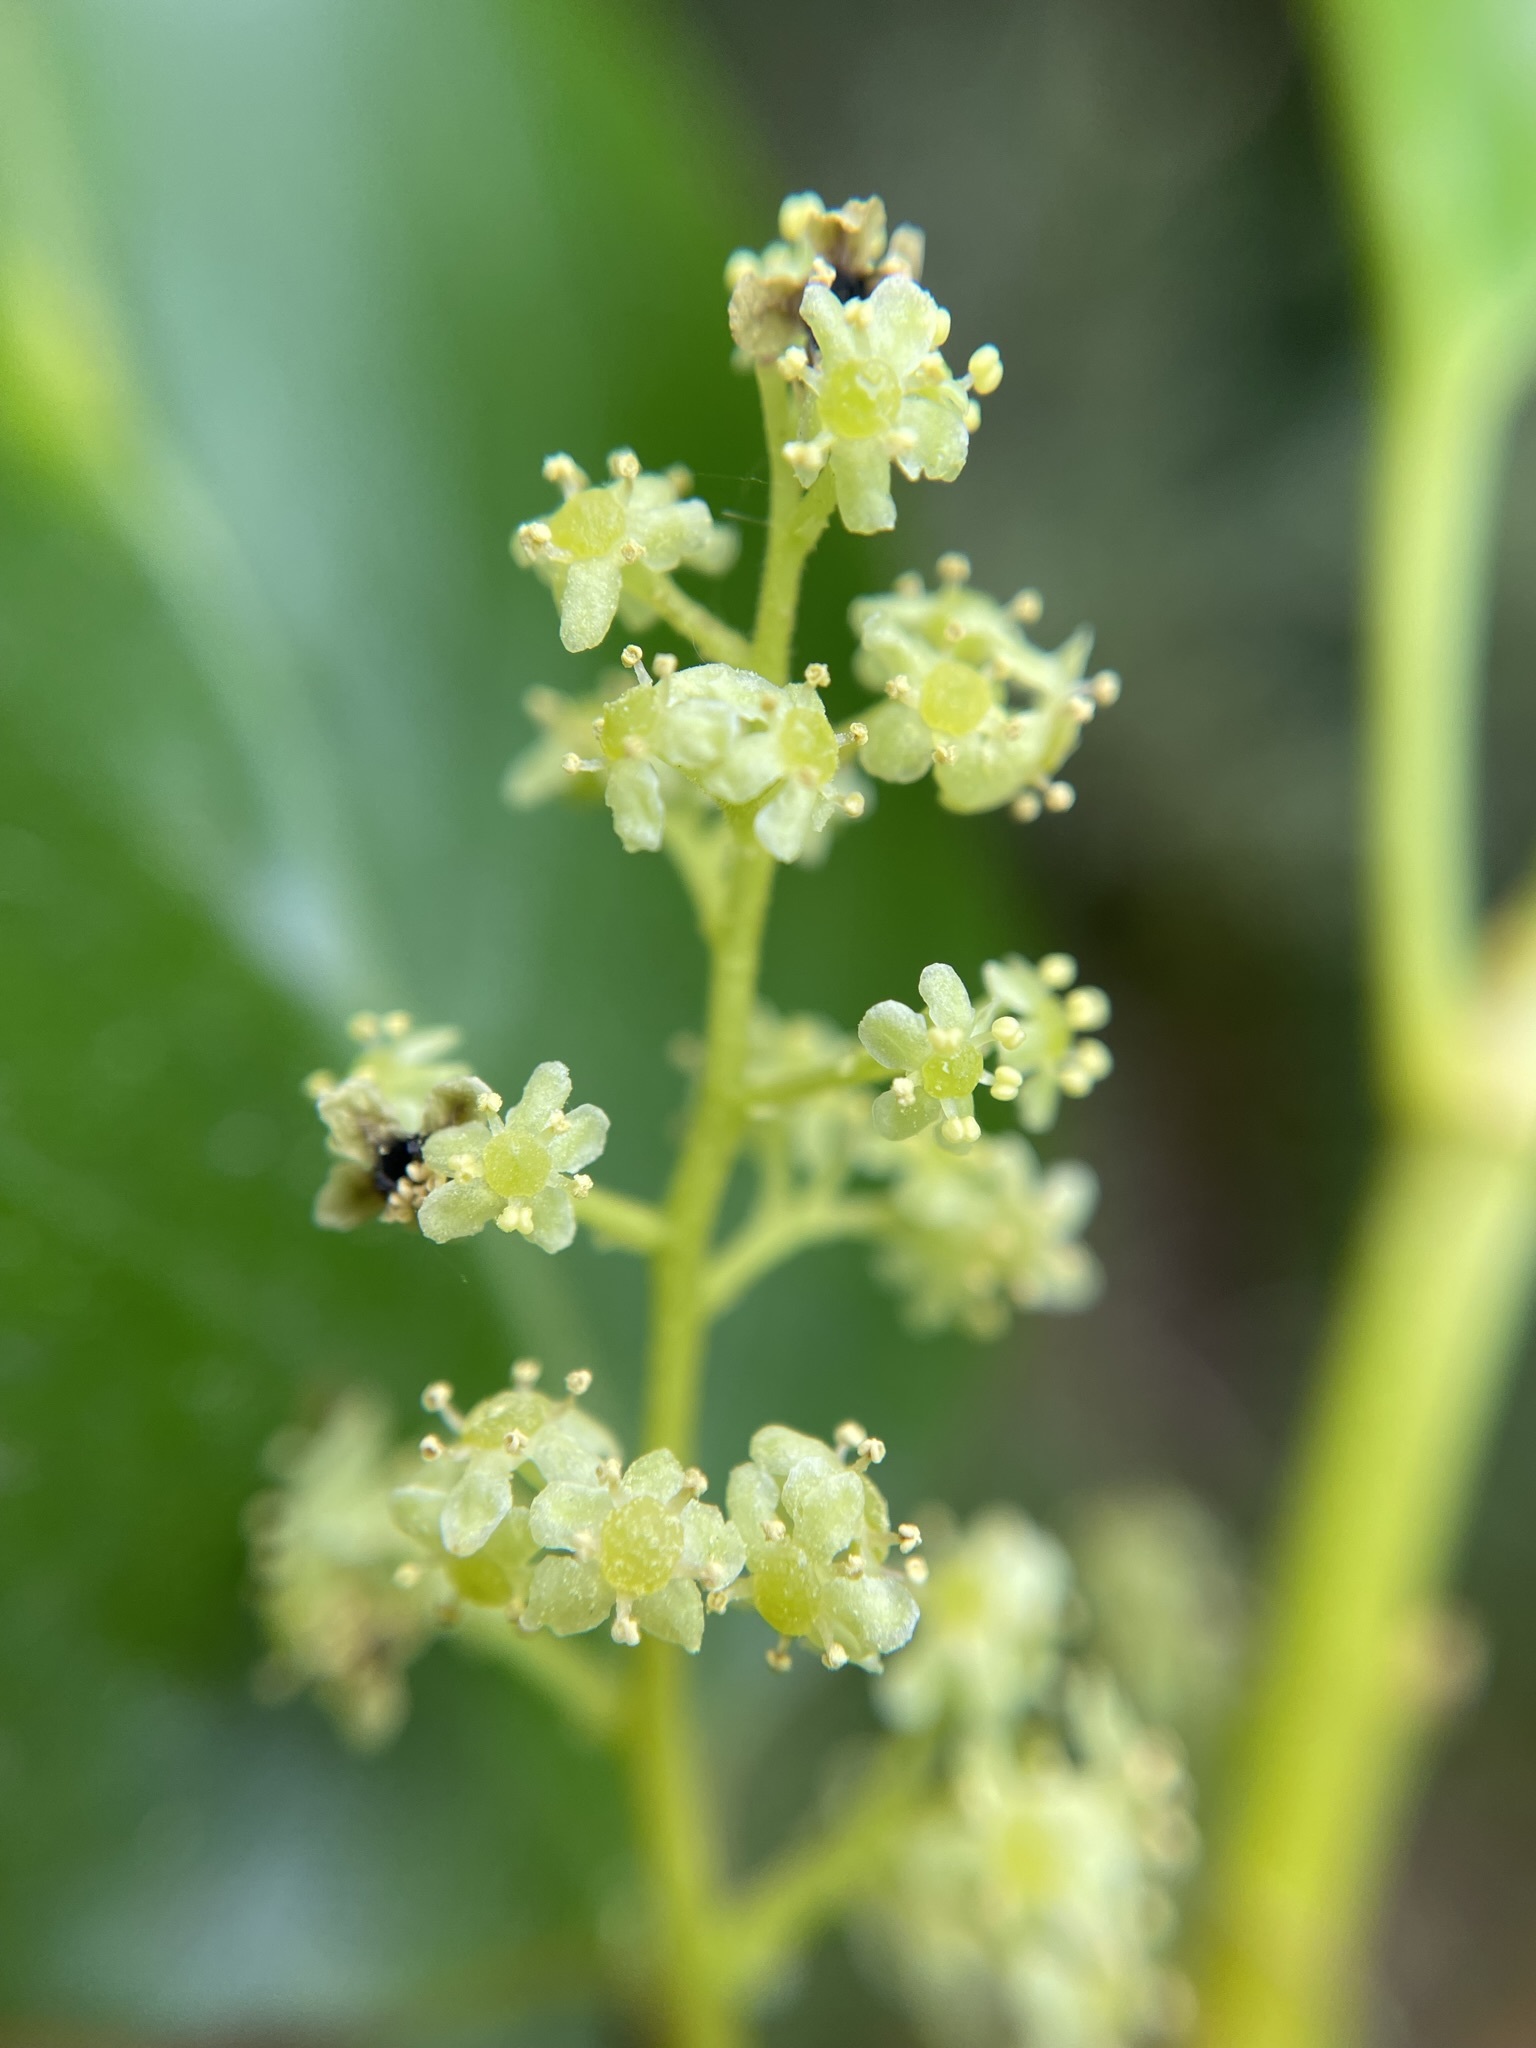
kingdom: Plantae
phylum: Tracheophyta
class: Magnoliopsida
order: Apiales
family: Griseliniaceae
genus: Griselinia
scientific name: Griselinia littoralis
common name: New zealand broadleaf
